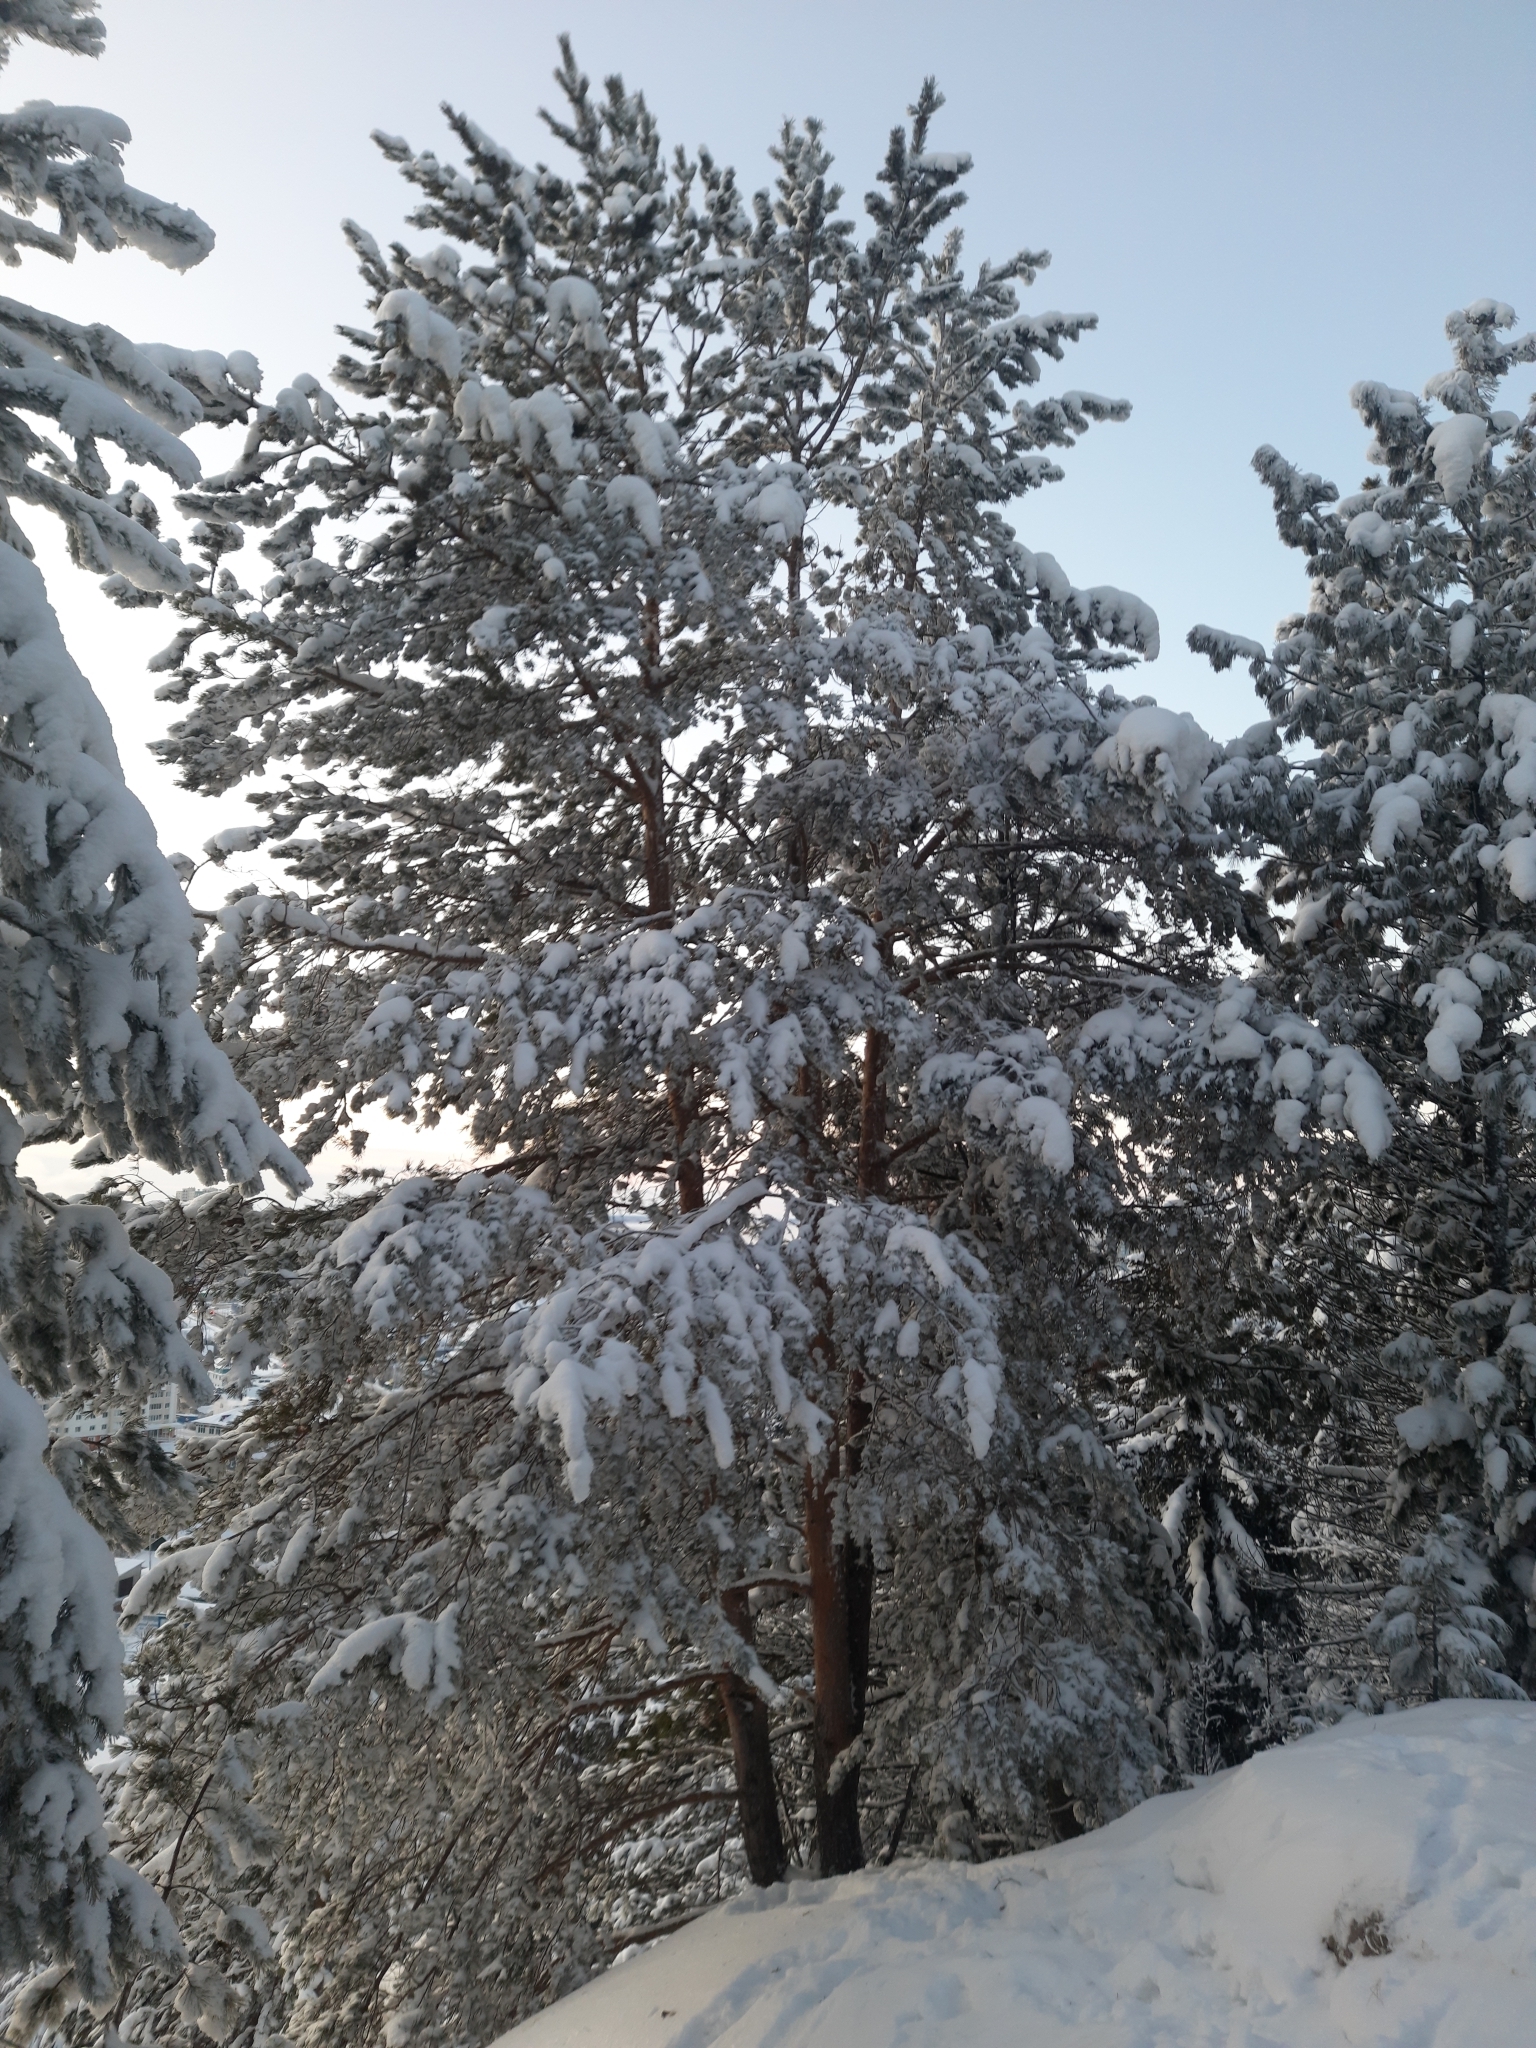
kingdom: Plantae
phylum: Tracheophyta
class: Pinopsida
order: Pinales
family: Pinaceae
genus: Pinus
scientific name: Pinus sylvestris
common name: Scots pine
